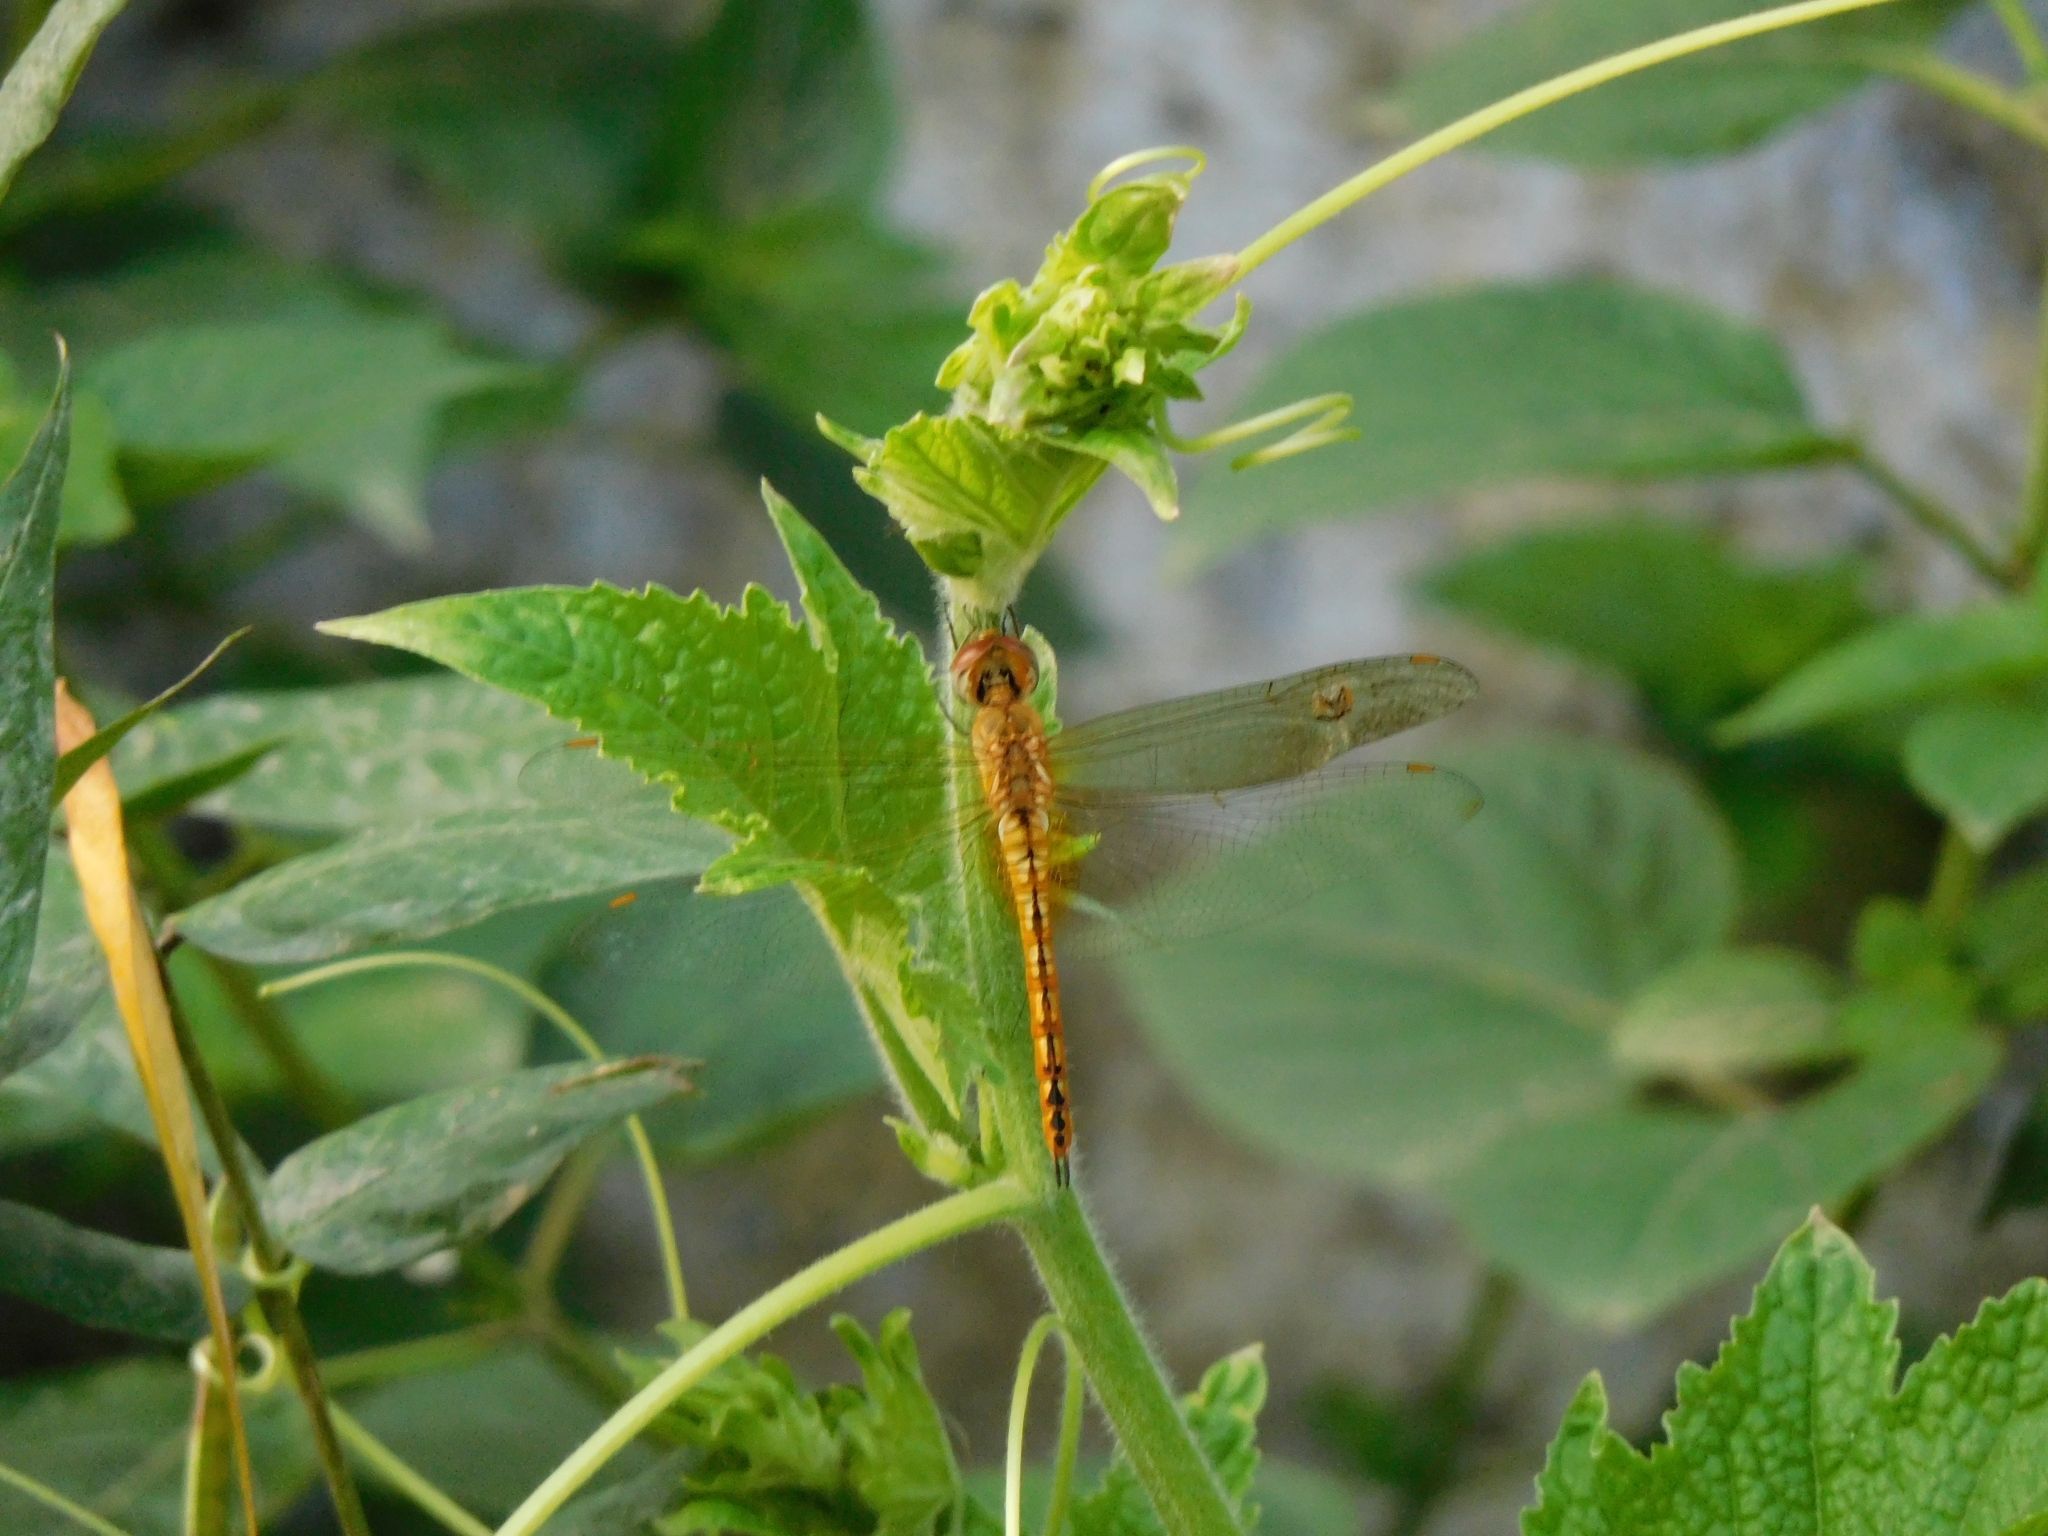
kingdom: Animalia
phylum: Arthropoda
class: Insecta
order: Odonata
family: Libellulidae
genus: Pantala
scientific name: Pantala flavescens
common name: Wandering glider
